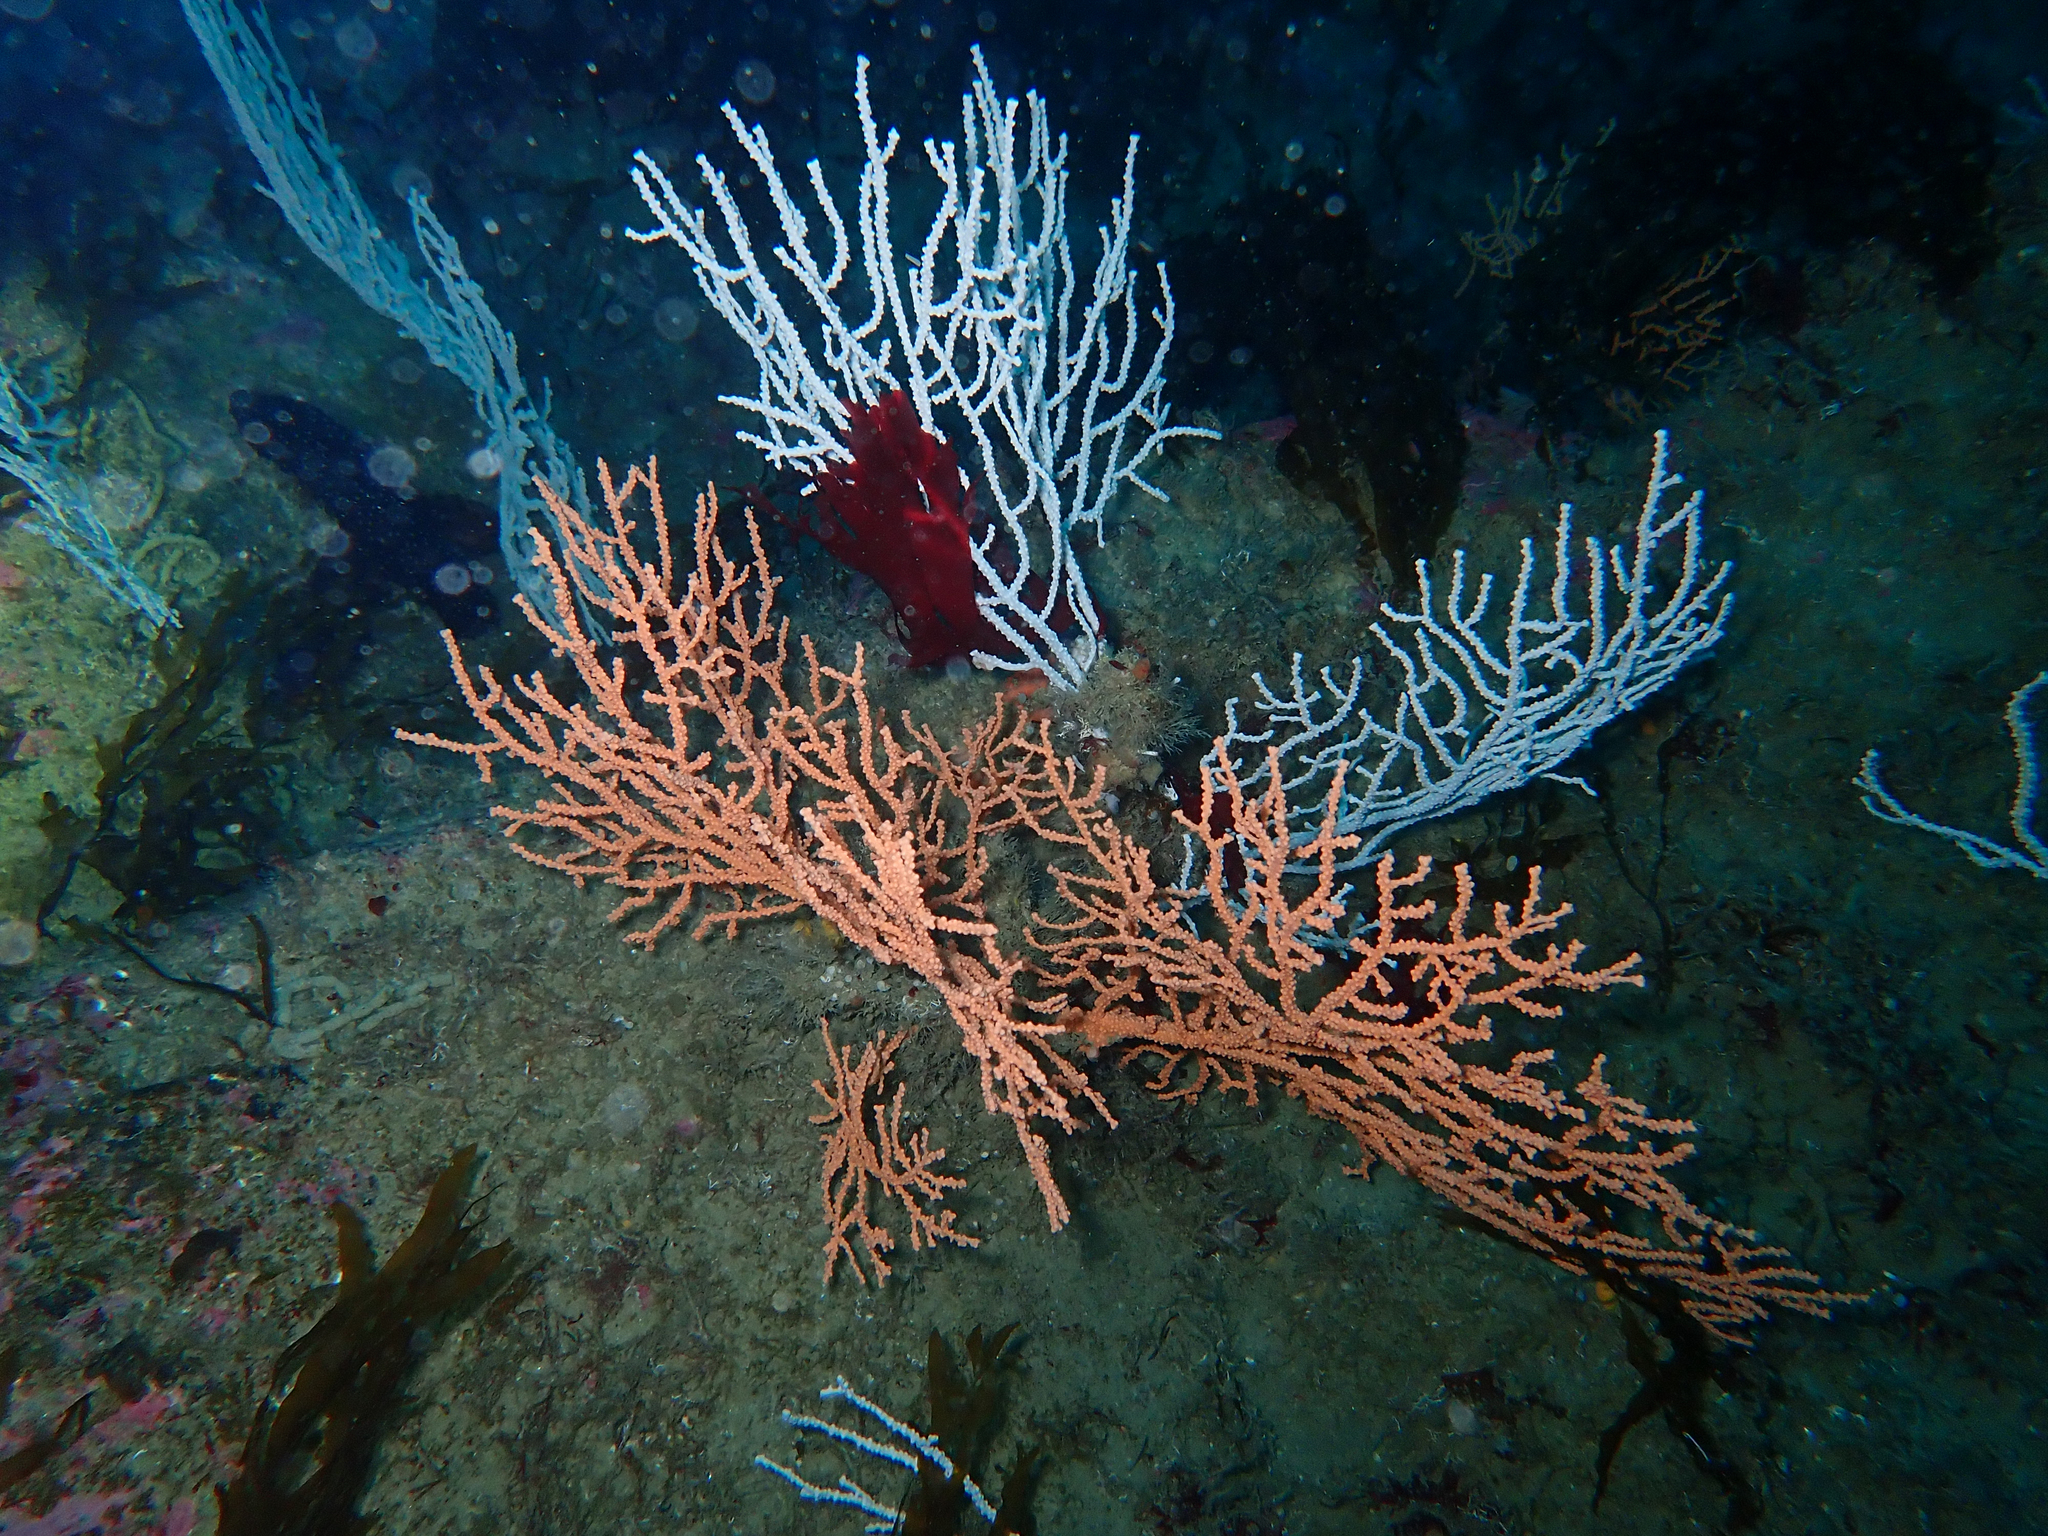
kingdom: Animalia
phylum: Cnidaria
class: Anthozoa
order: Malacalcyonacea
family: Eunicellidae
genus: Eunicella
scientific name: Eunicella verrucosa
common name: Pink sea-fan
